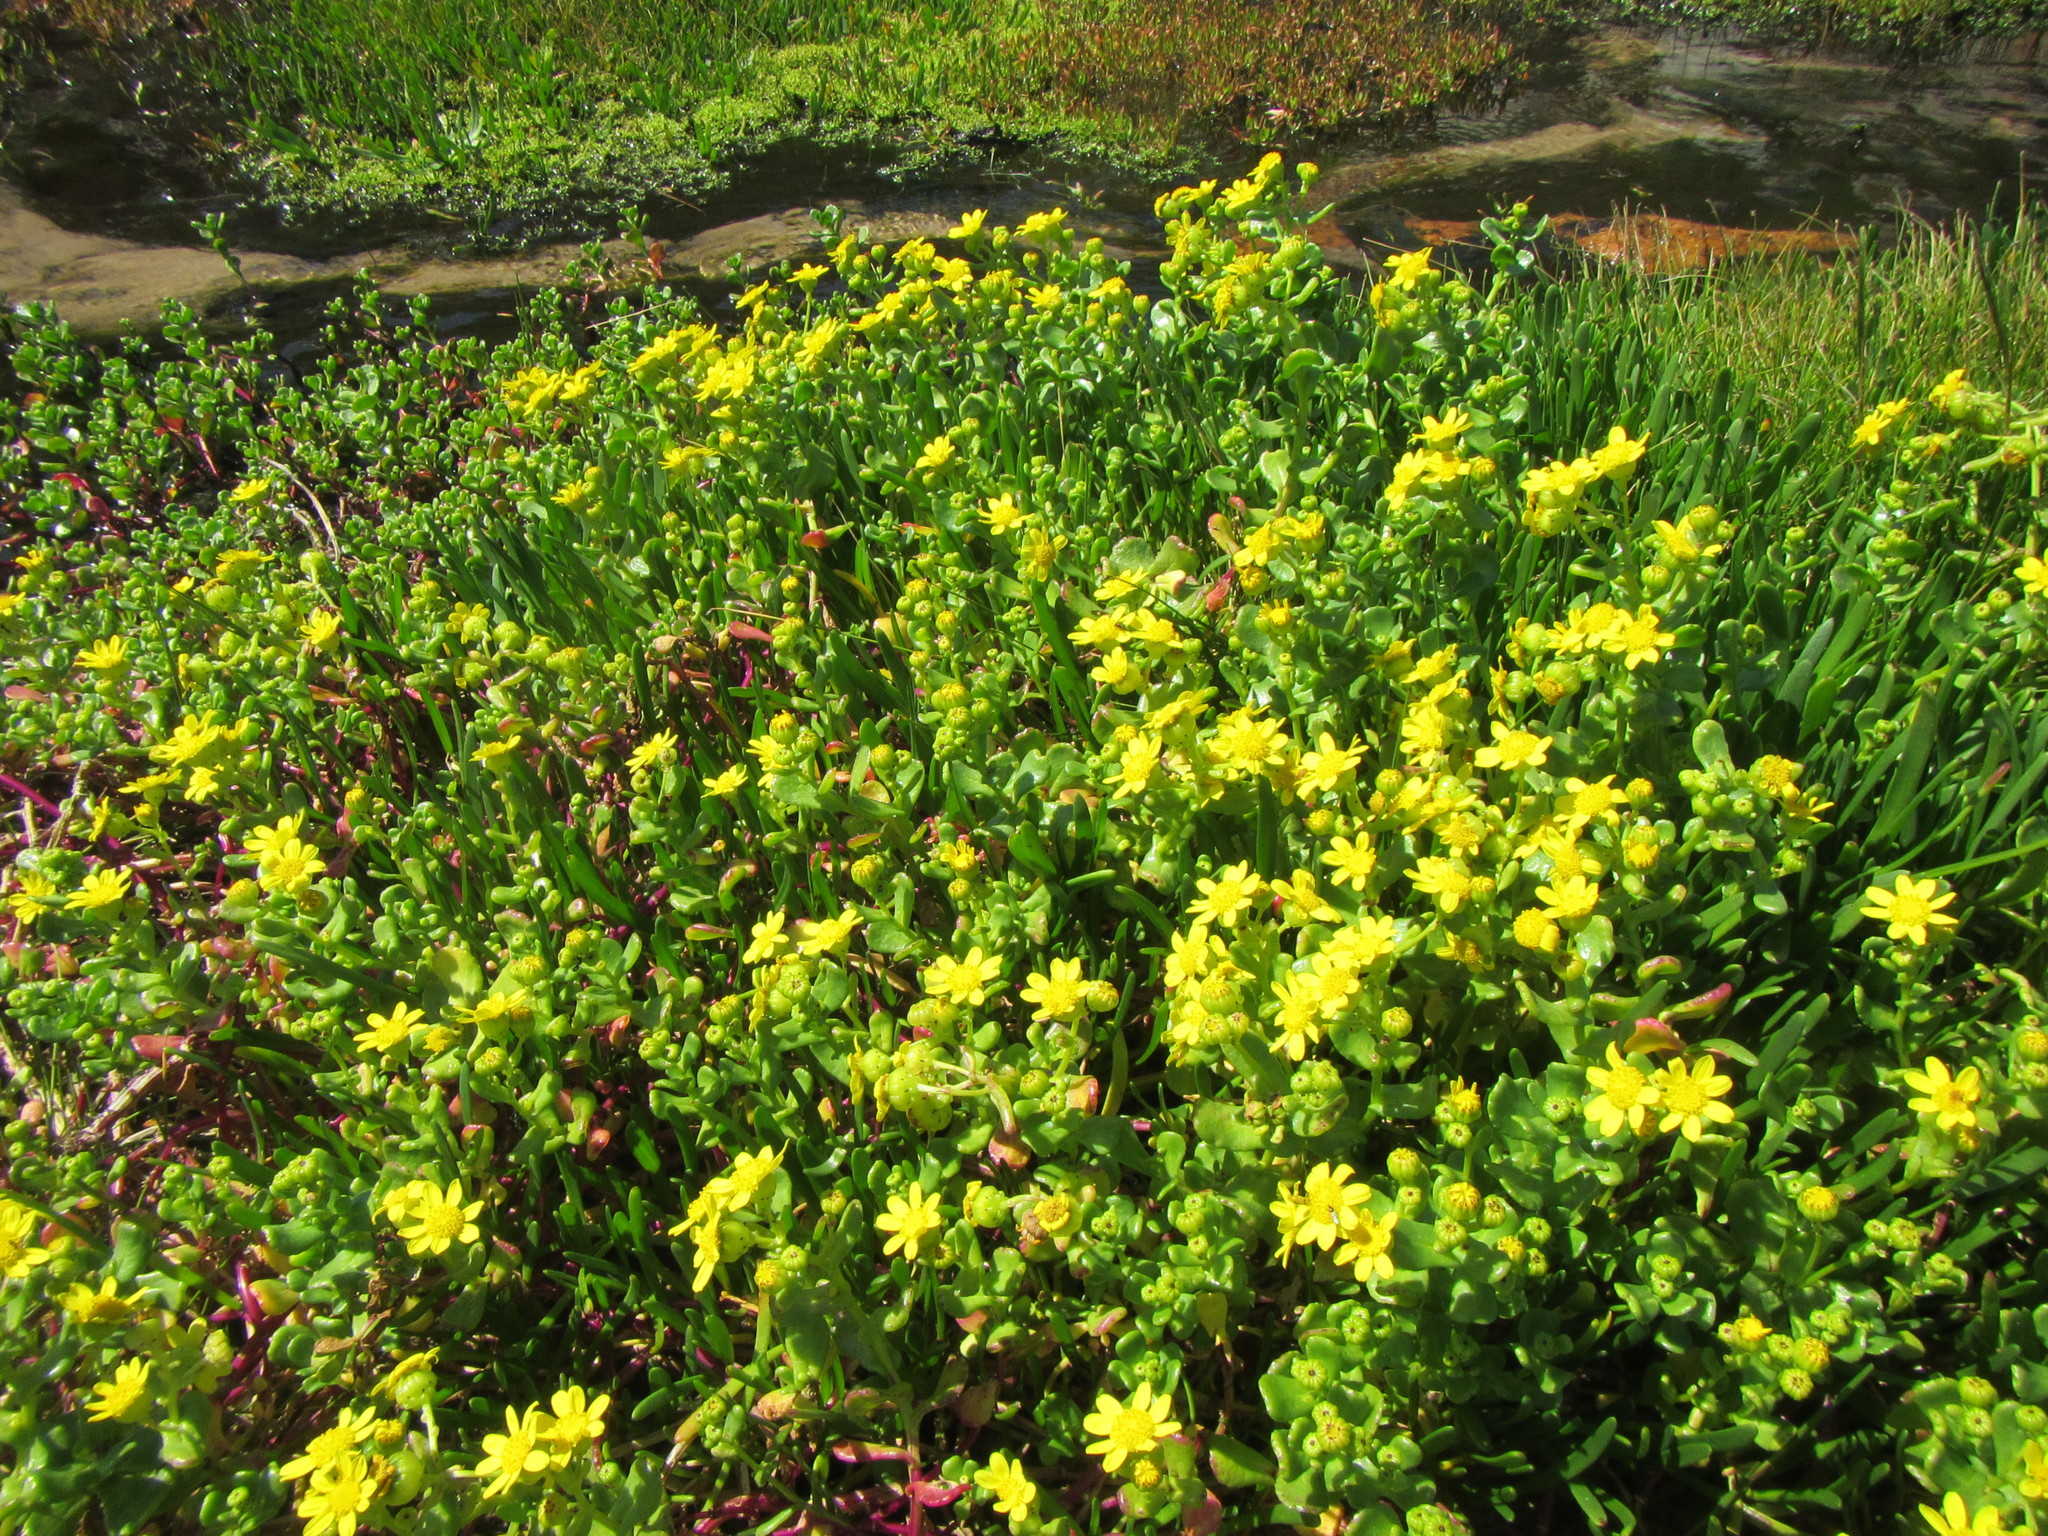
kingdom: Plantae
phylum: Tracheophyta
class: Magnoliopsida
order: Asterales
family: Asteraceae
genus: Senecio
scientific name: Senecio maritimus
